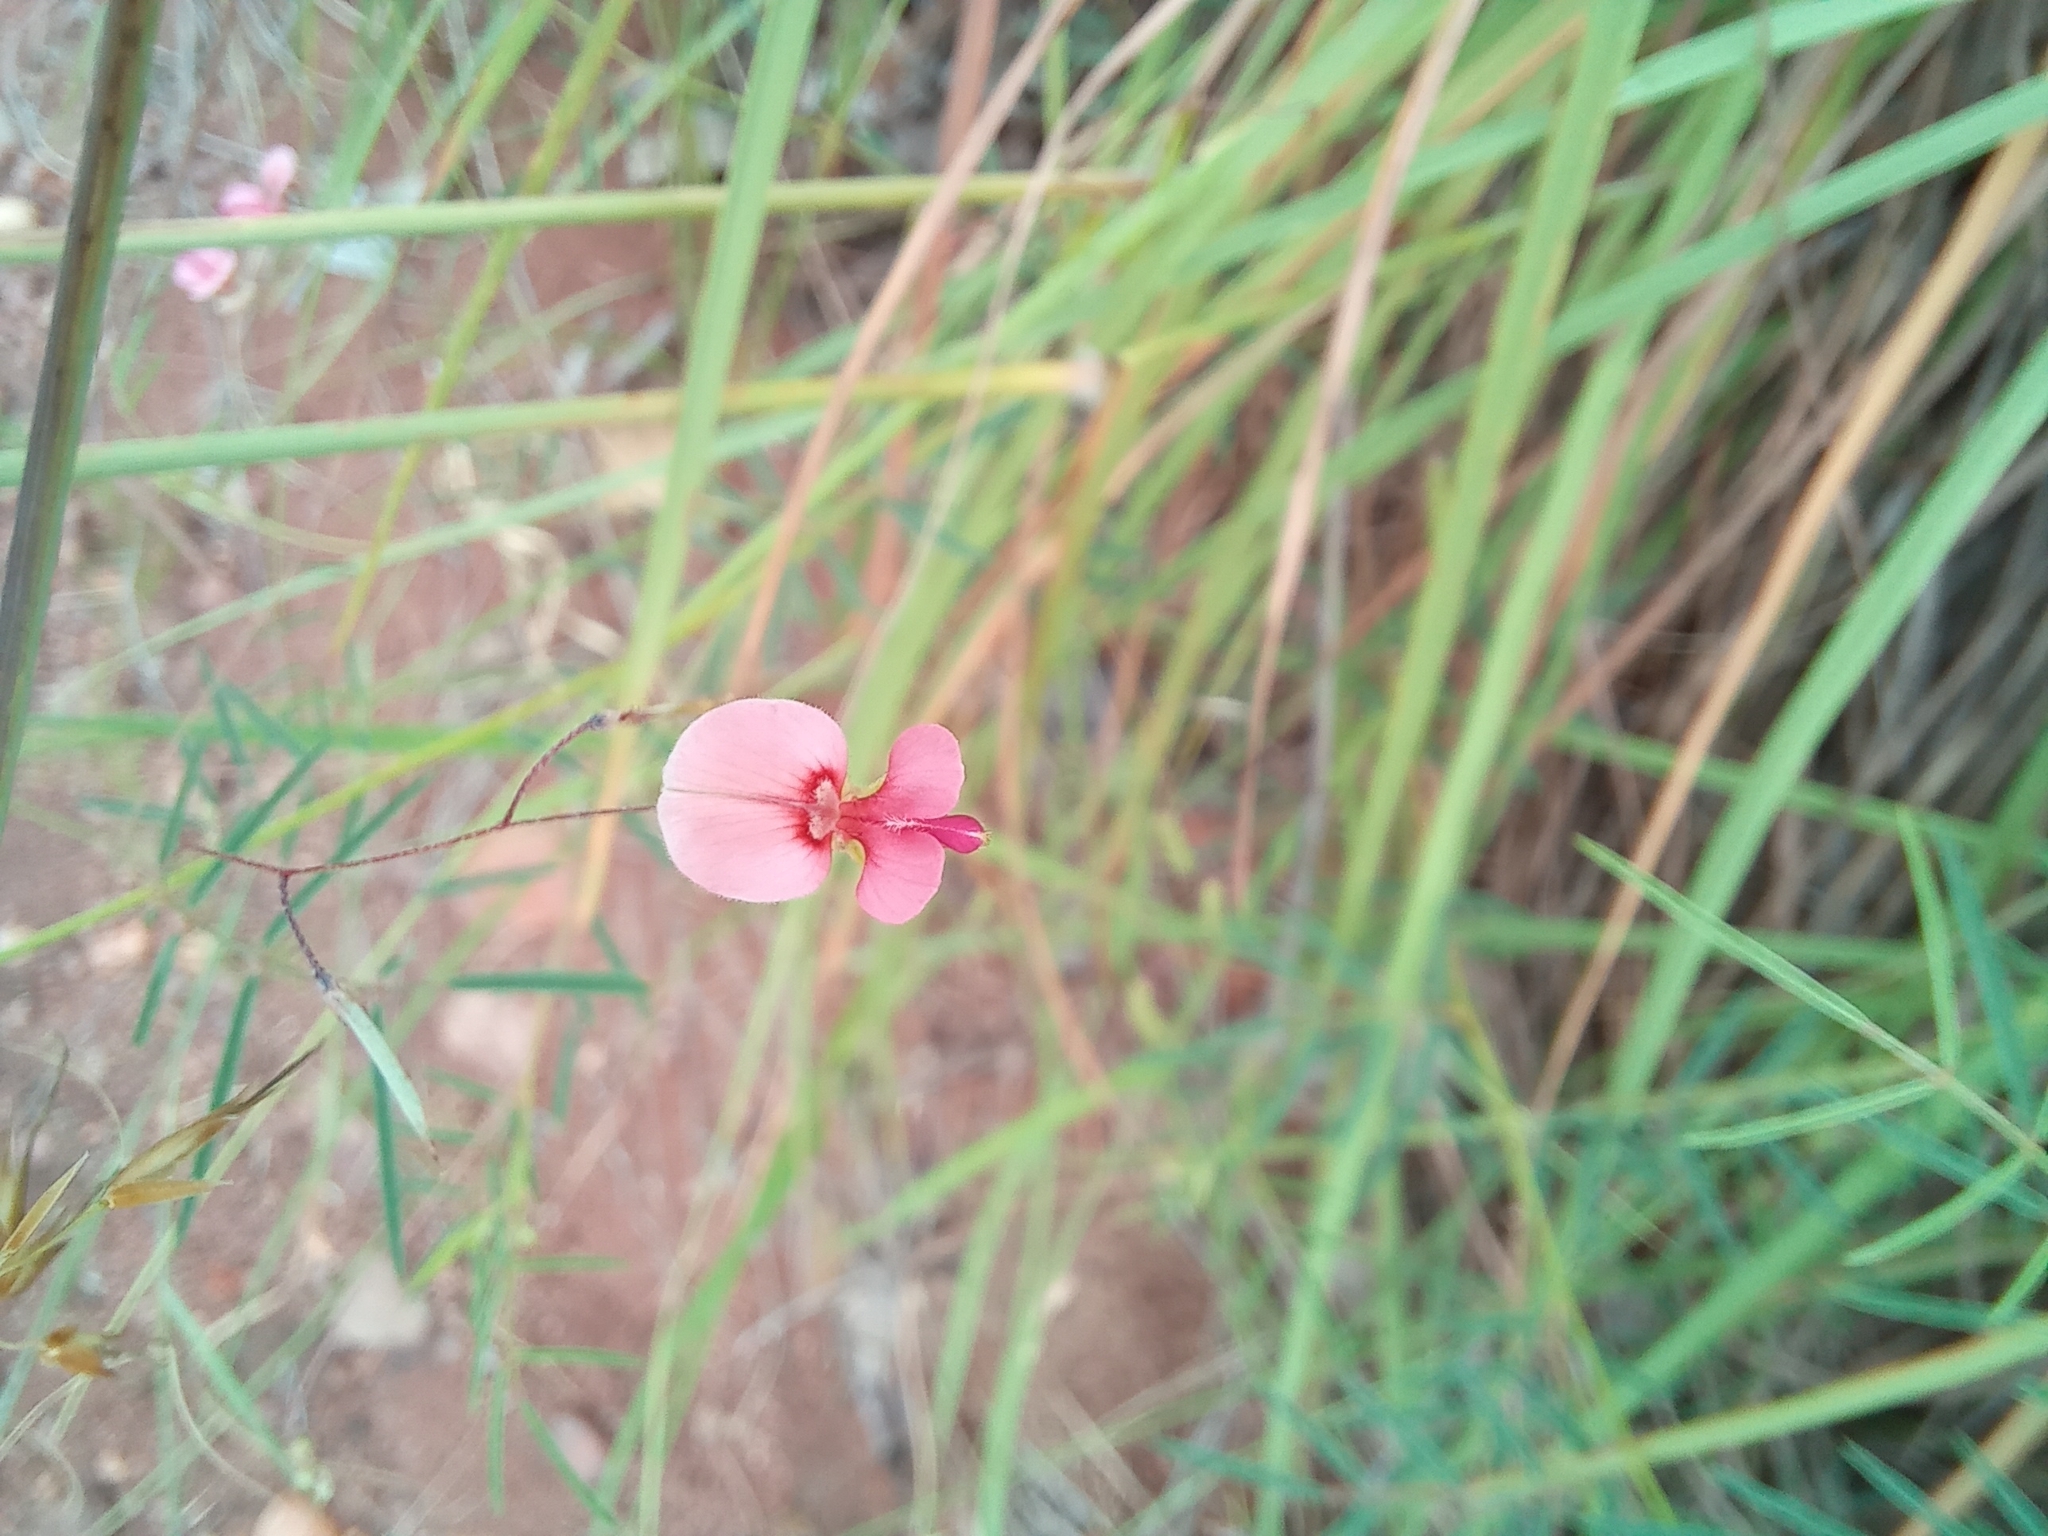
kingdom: Plantae
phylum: Tracheophyta
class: Magnoliopsida
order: Fabales
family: Fabaceae
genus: Indigofera
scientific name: Indigofera filipes
